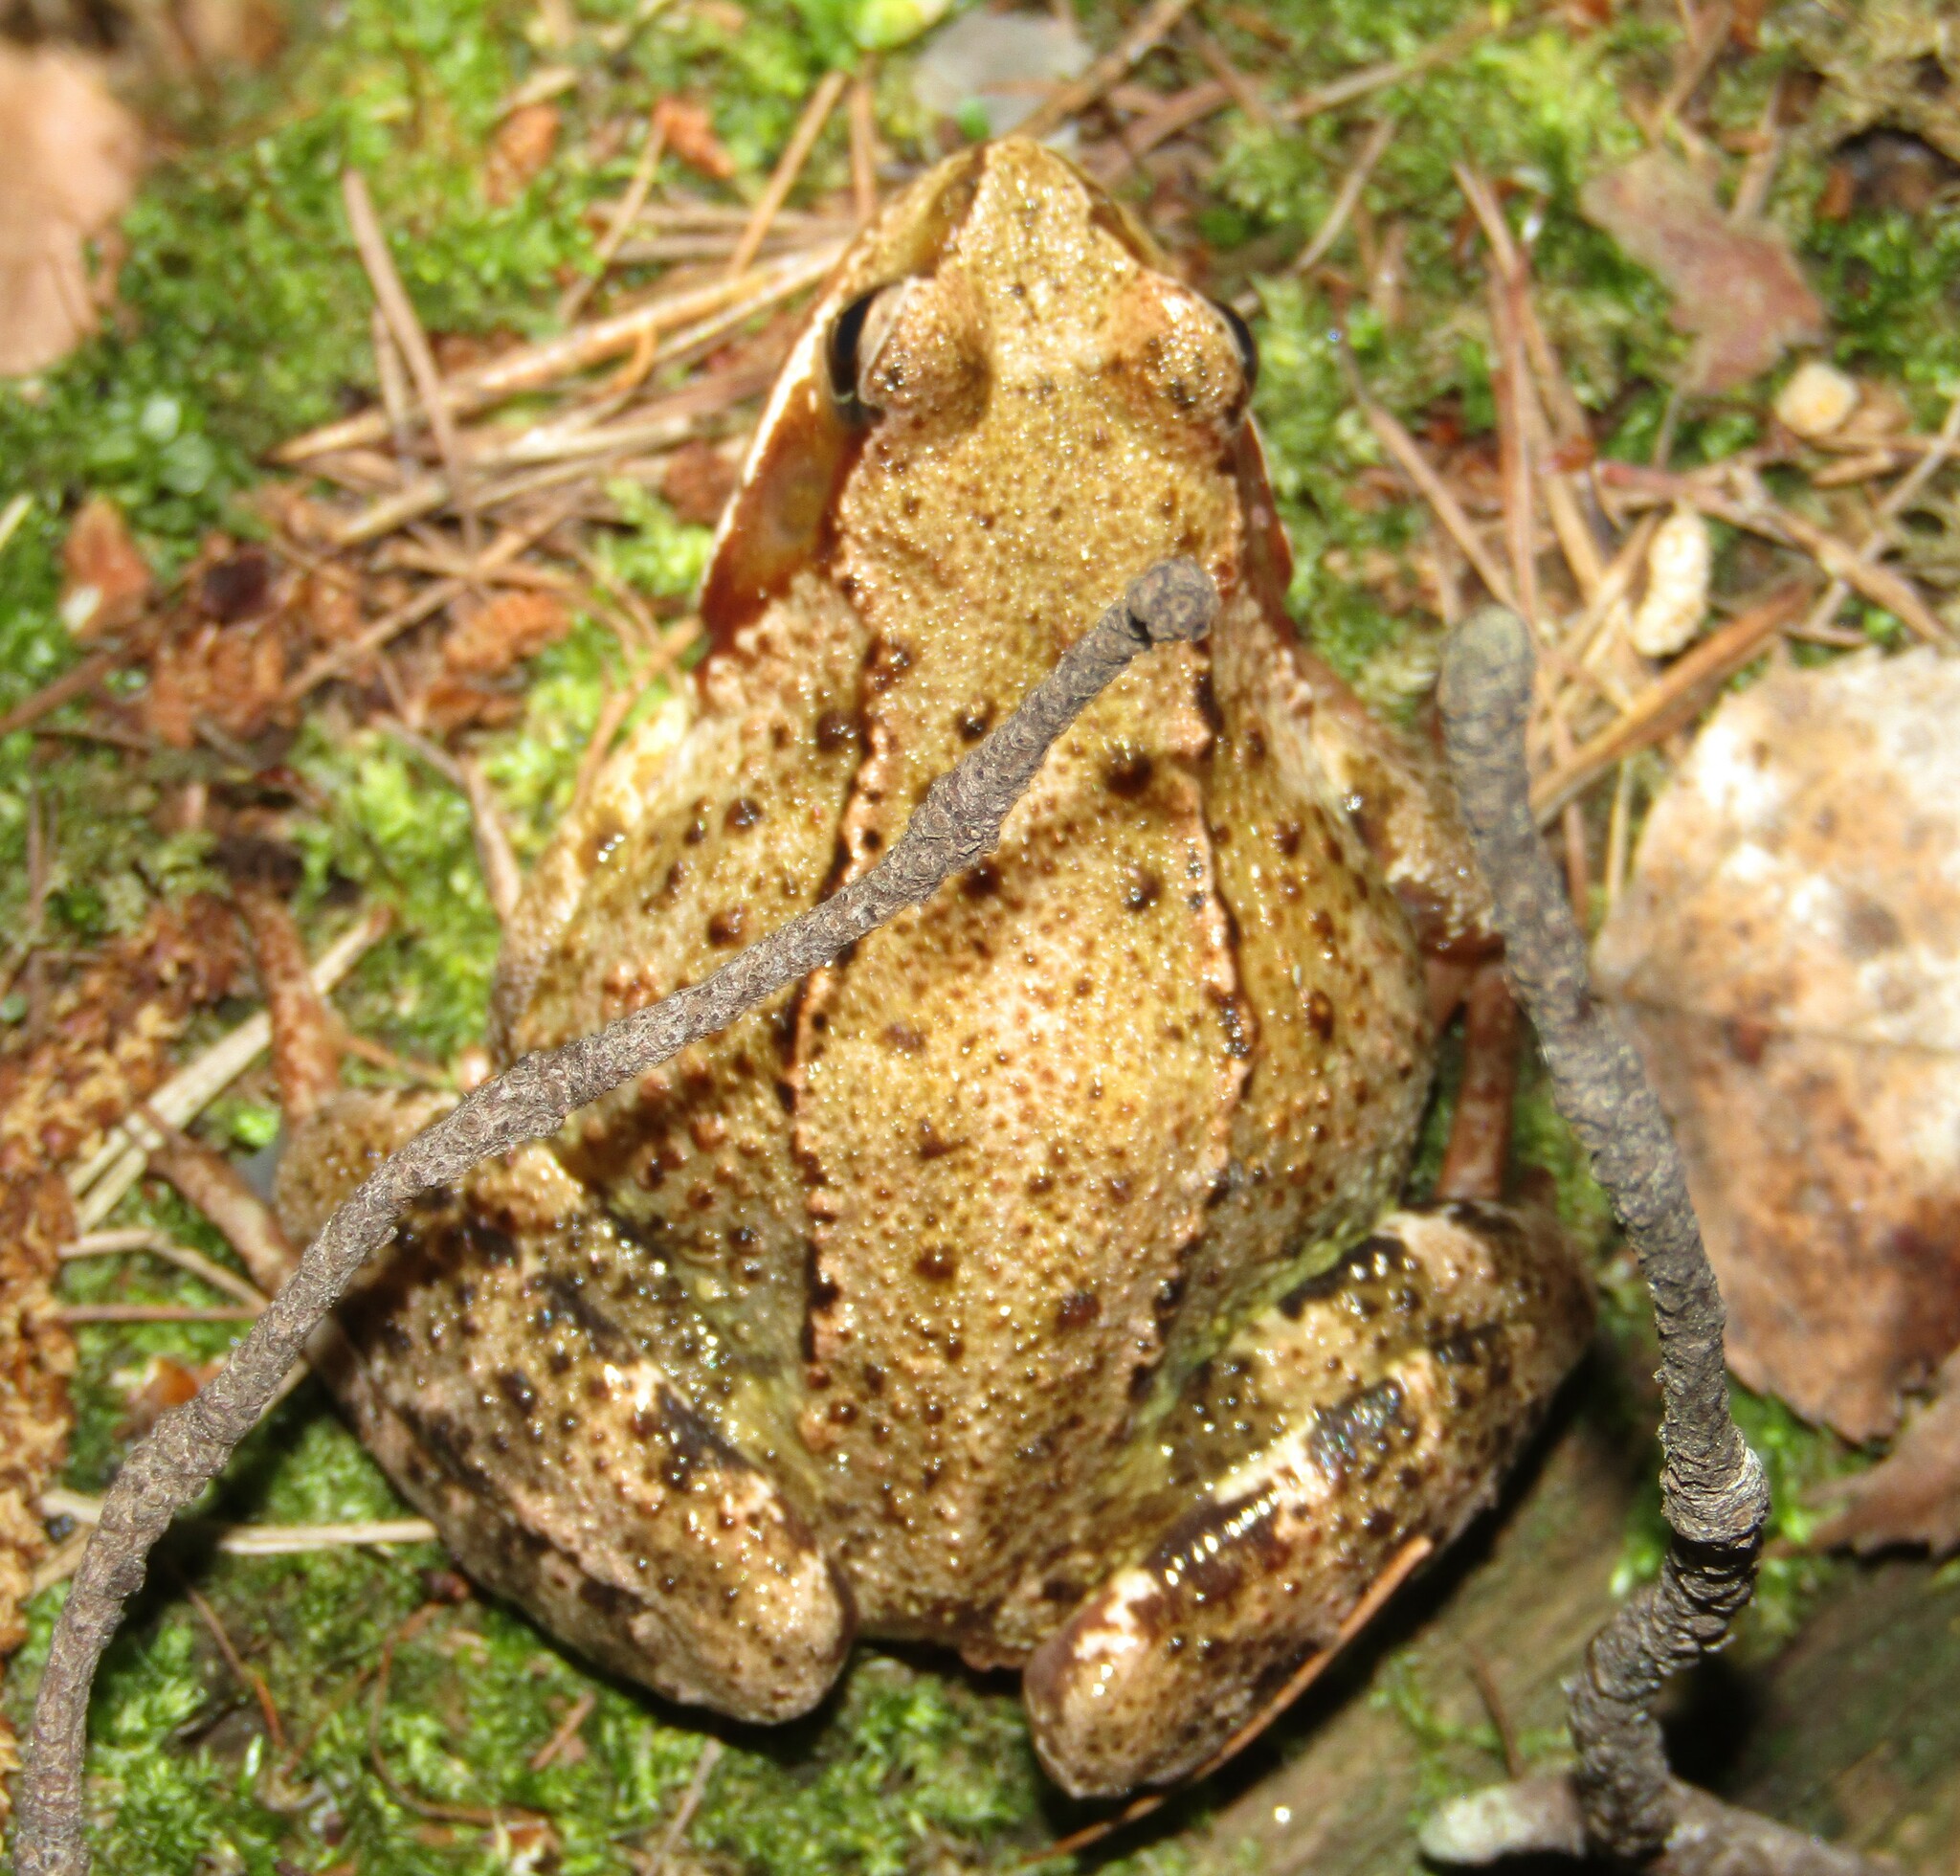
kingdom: Animalia
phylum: Chordata
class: Amphibia
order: Anura
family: Ranidae
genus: Rana
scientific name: Rana temporaria
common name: Common frog
